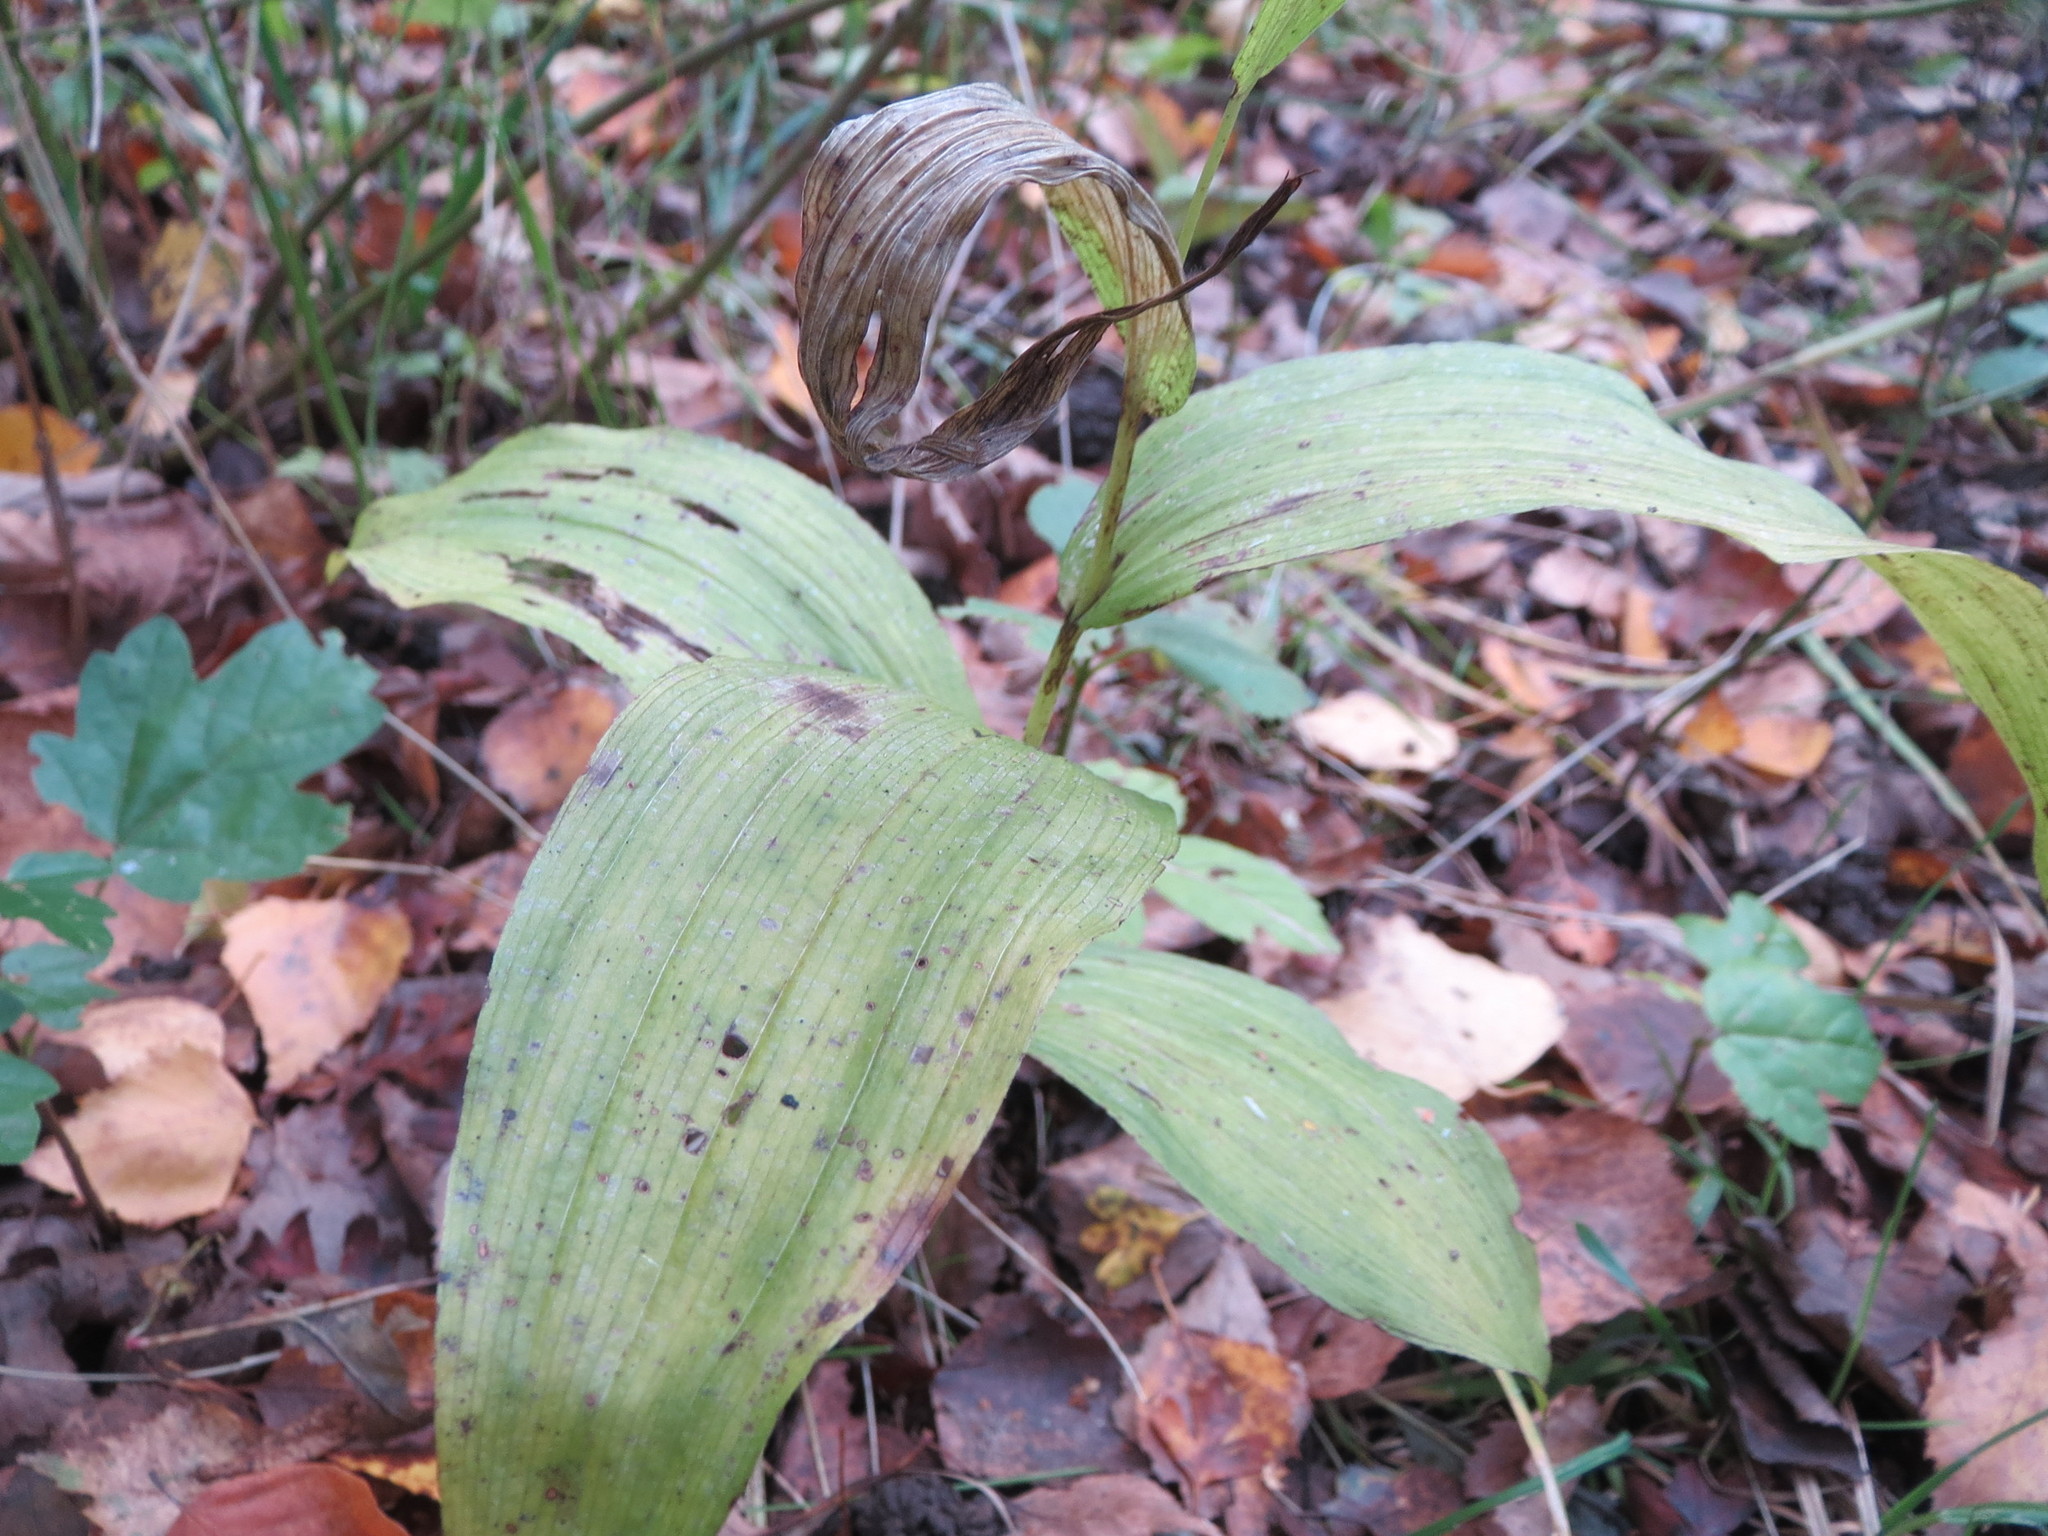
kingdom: Plantae
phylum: Tracheophyta
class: Liliopsida
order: Asparagales
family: Orchidaceae
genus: Epipactis
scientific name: Epipactis helleborine
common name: Broad-leaved helleborine
